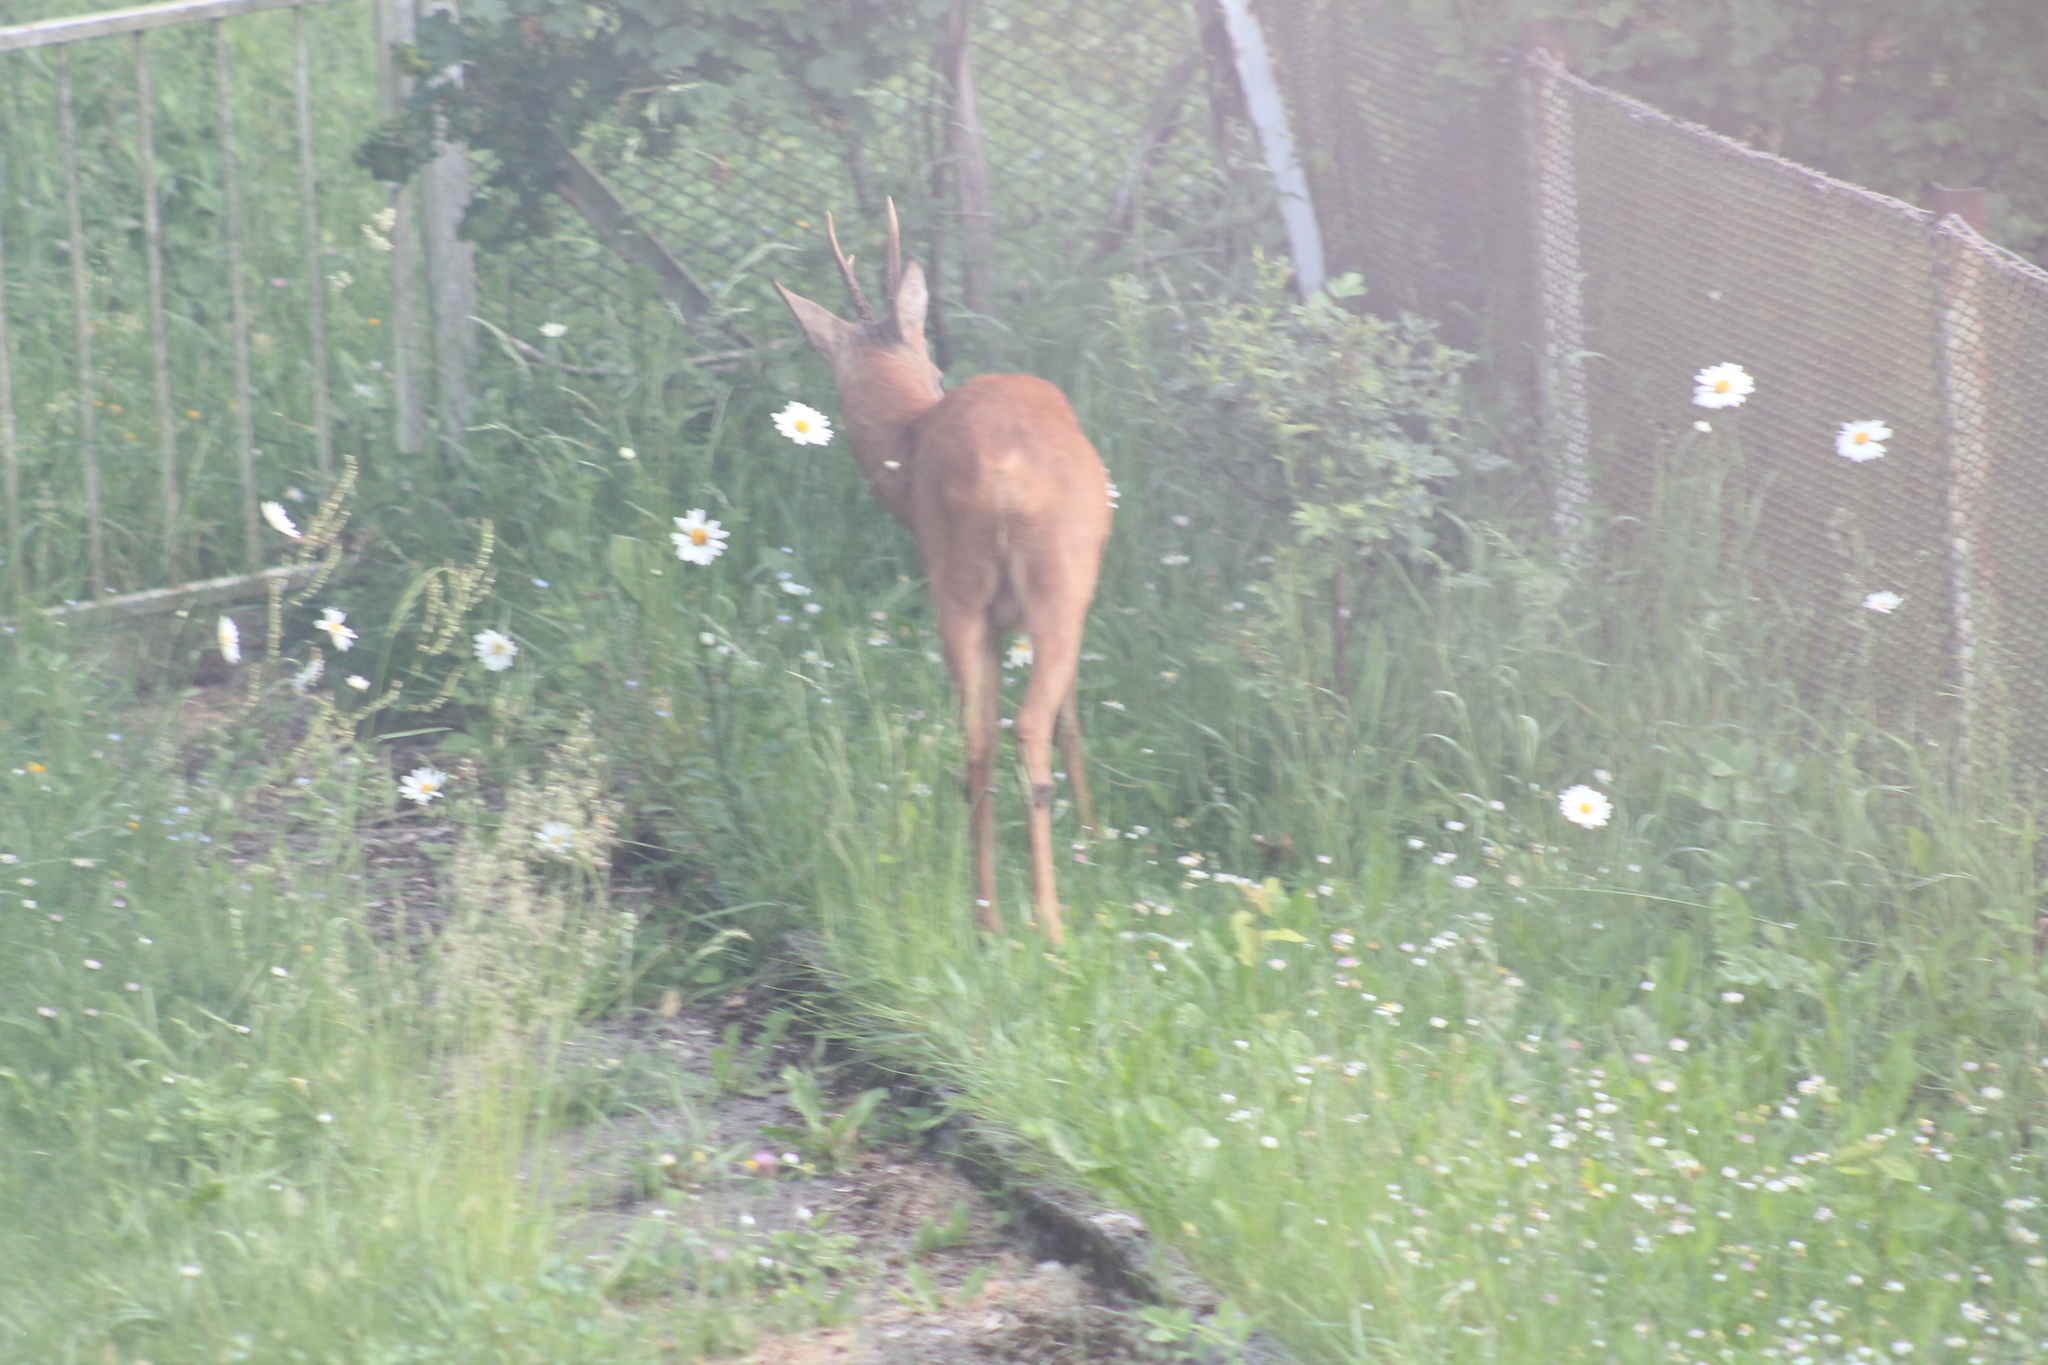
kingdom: Animalia
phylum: Chordata
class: Mammalia
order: Artiodactyla
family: Cervidae
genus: Capreolus
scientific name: Capreolus capreolus
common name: Western roe deer
